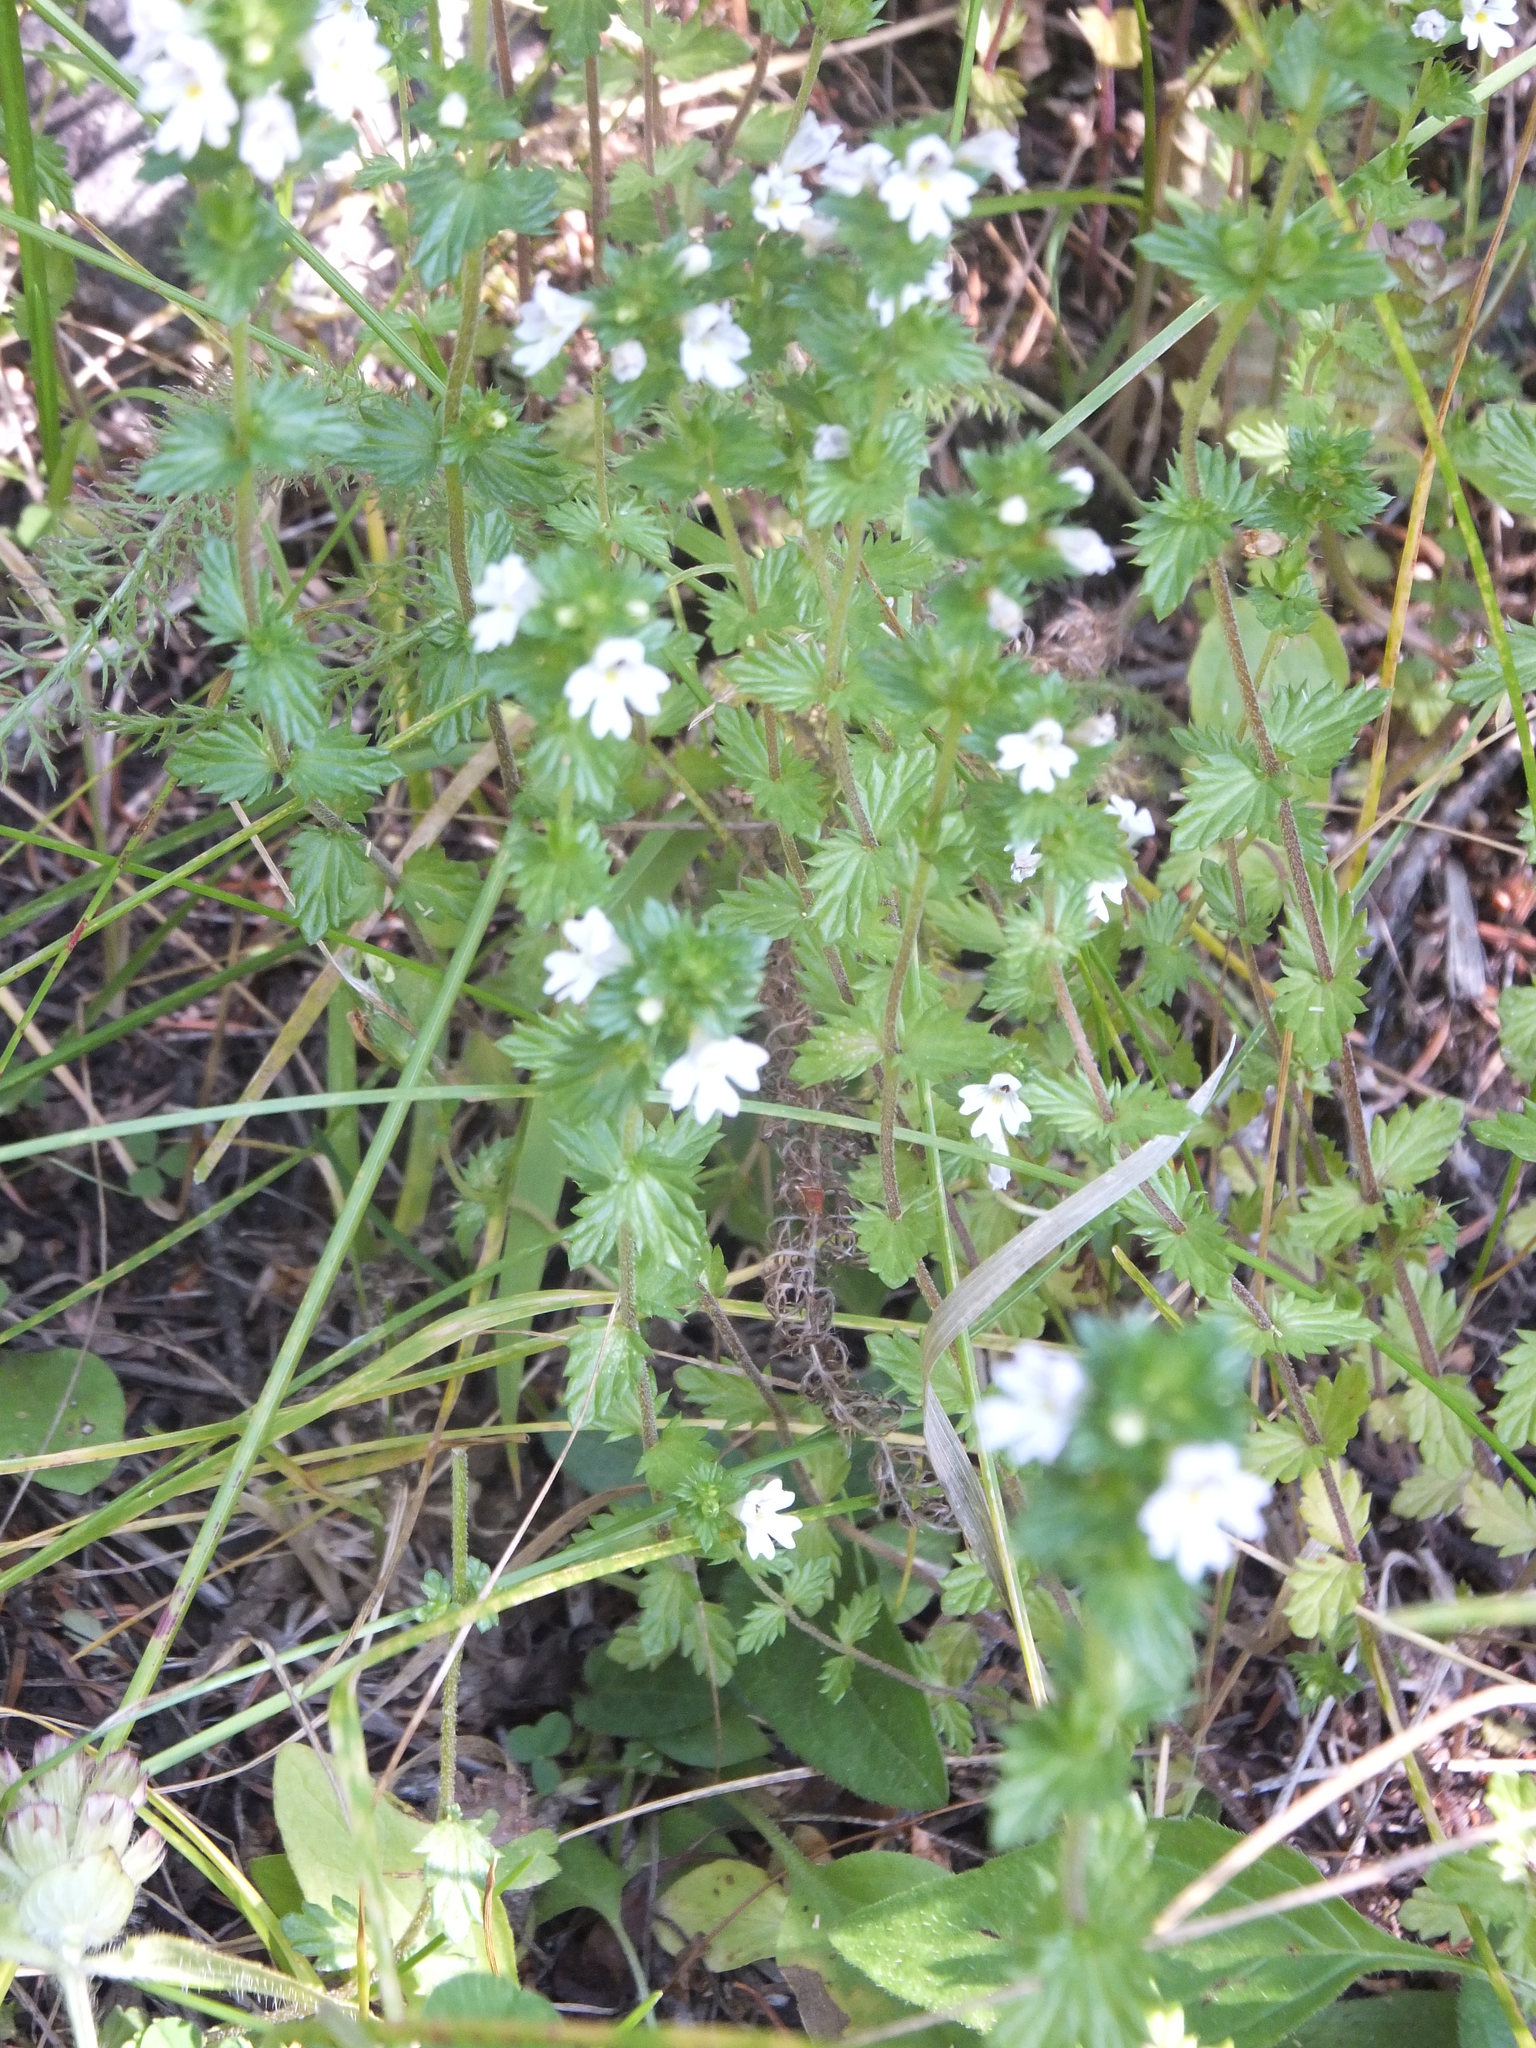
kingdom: Plantae
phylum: Tracheophyta
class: Magnoliopsida
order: Lamiales
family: Orobanchaceae
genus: Euphrasia
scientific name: Euphrasia nemorosa
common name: Common eyebright
